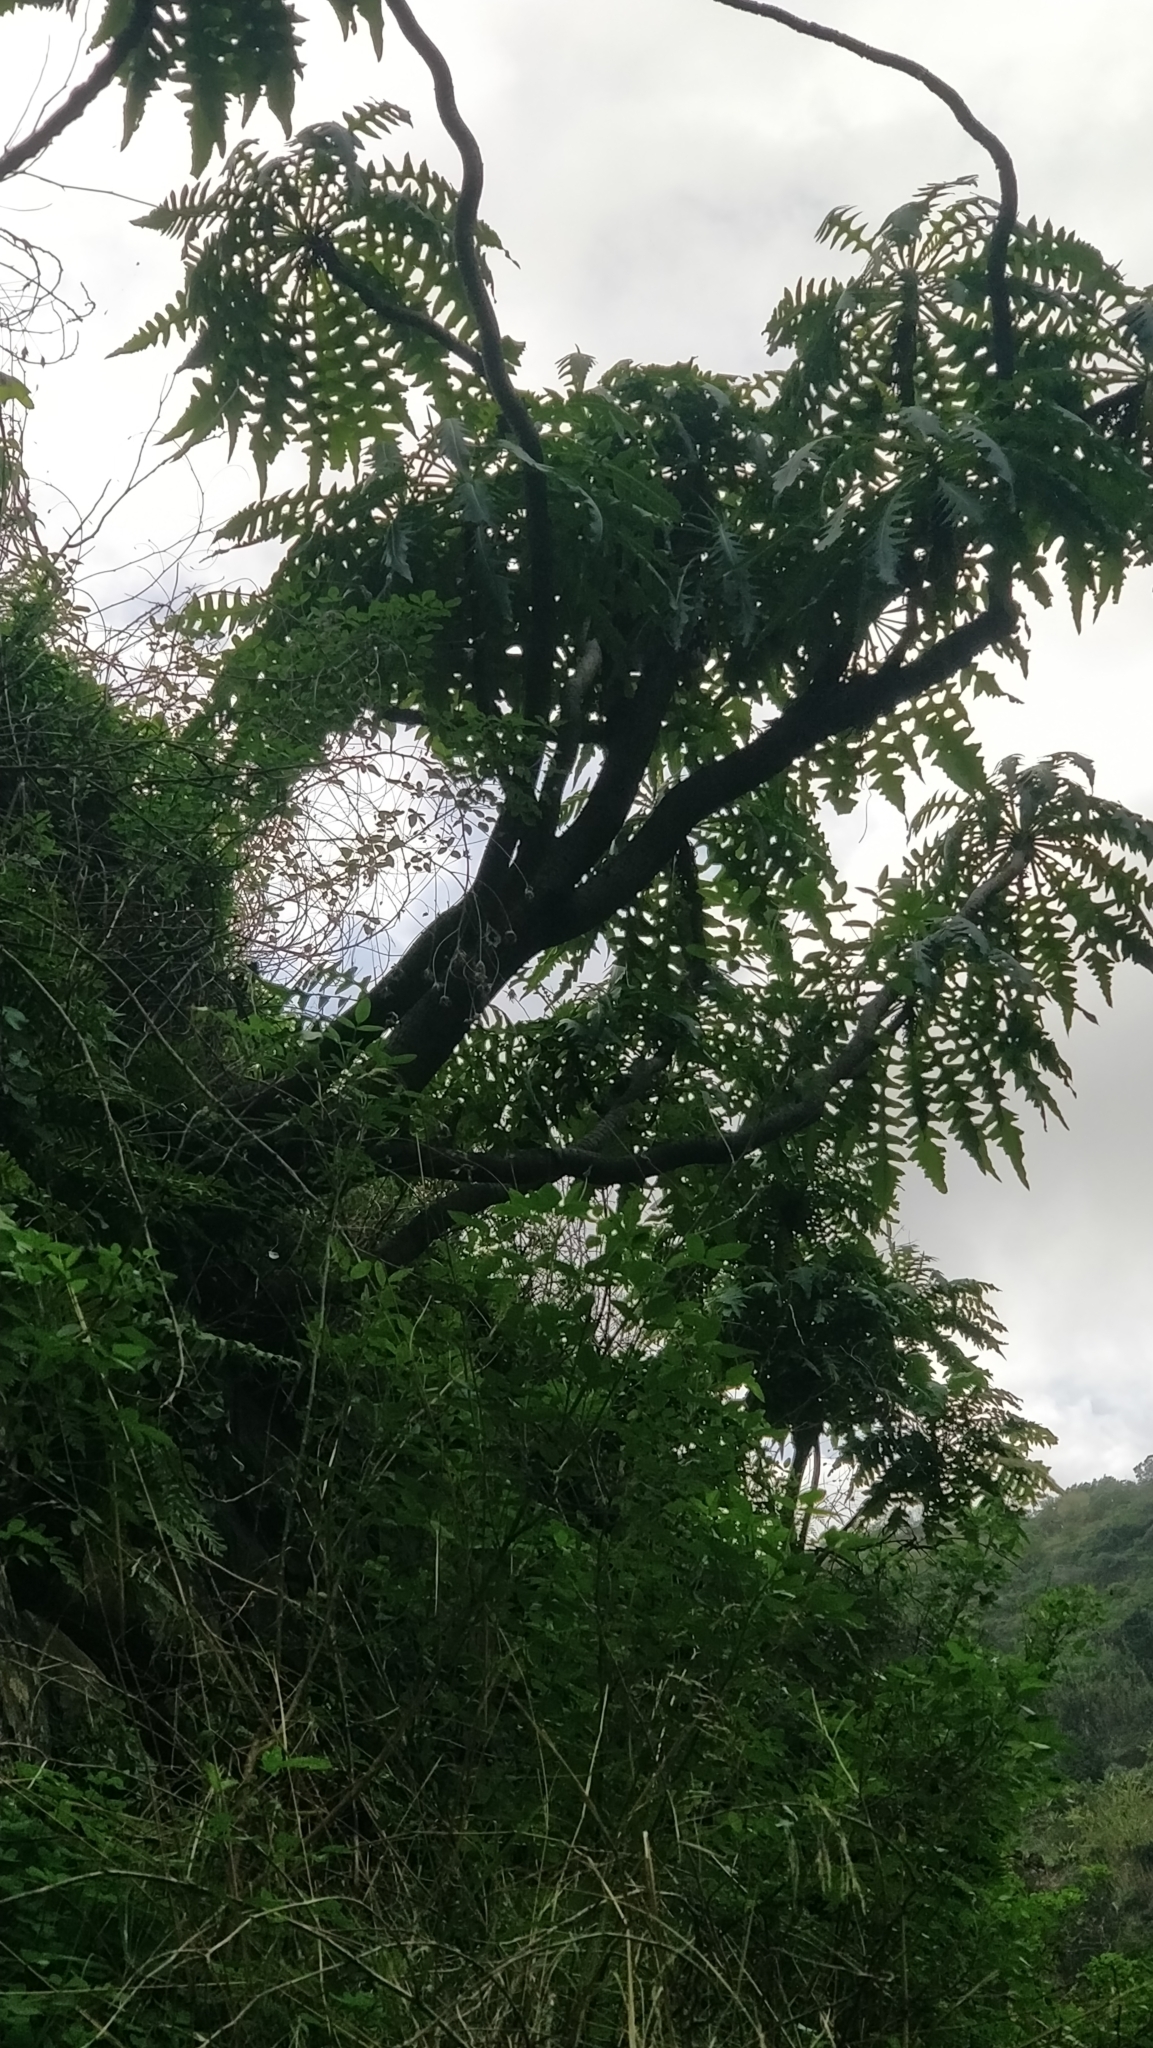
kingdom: Plantae
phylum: Tracheophyta
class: Magnoliopsida
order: Asterales
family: Asteraceae
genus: Sonchus
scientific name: Sonchus pinnatus
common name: Wing-leaved sow-thistle
